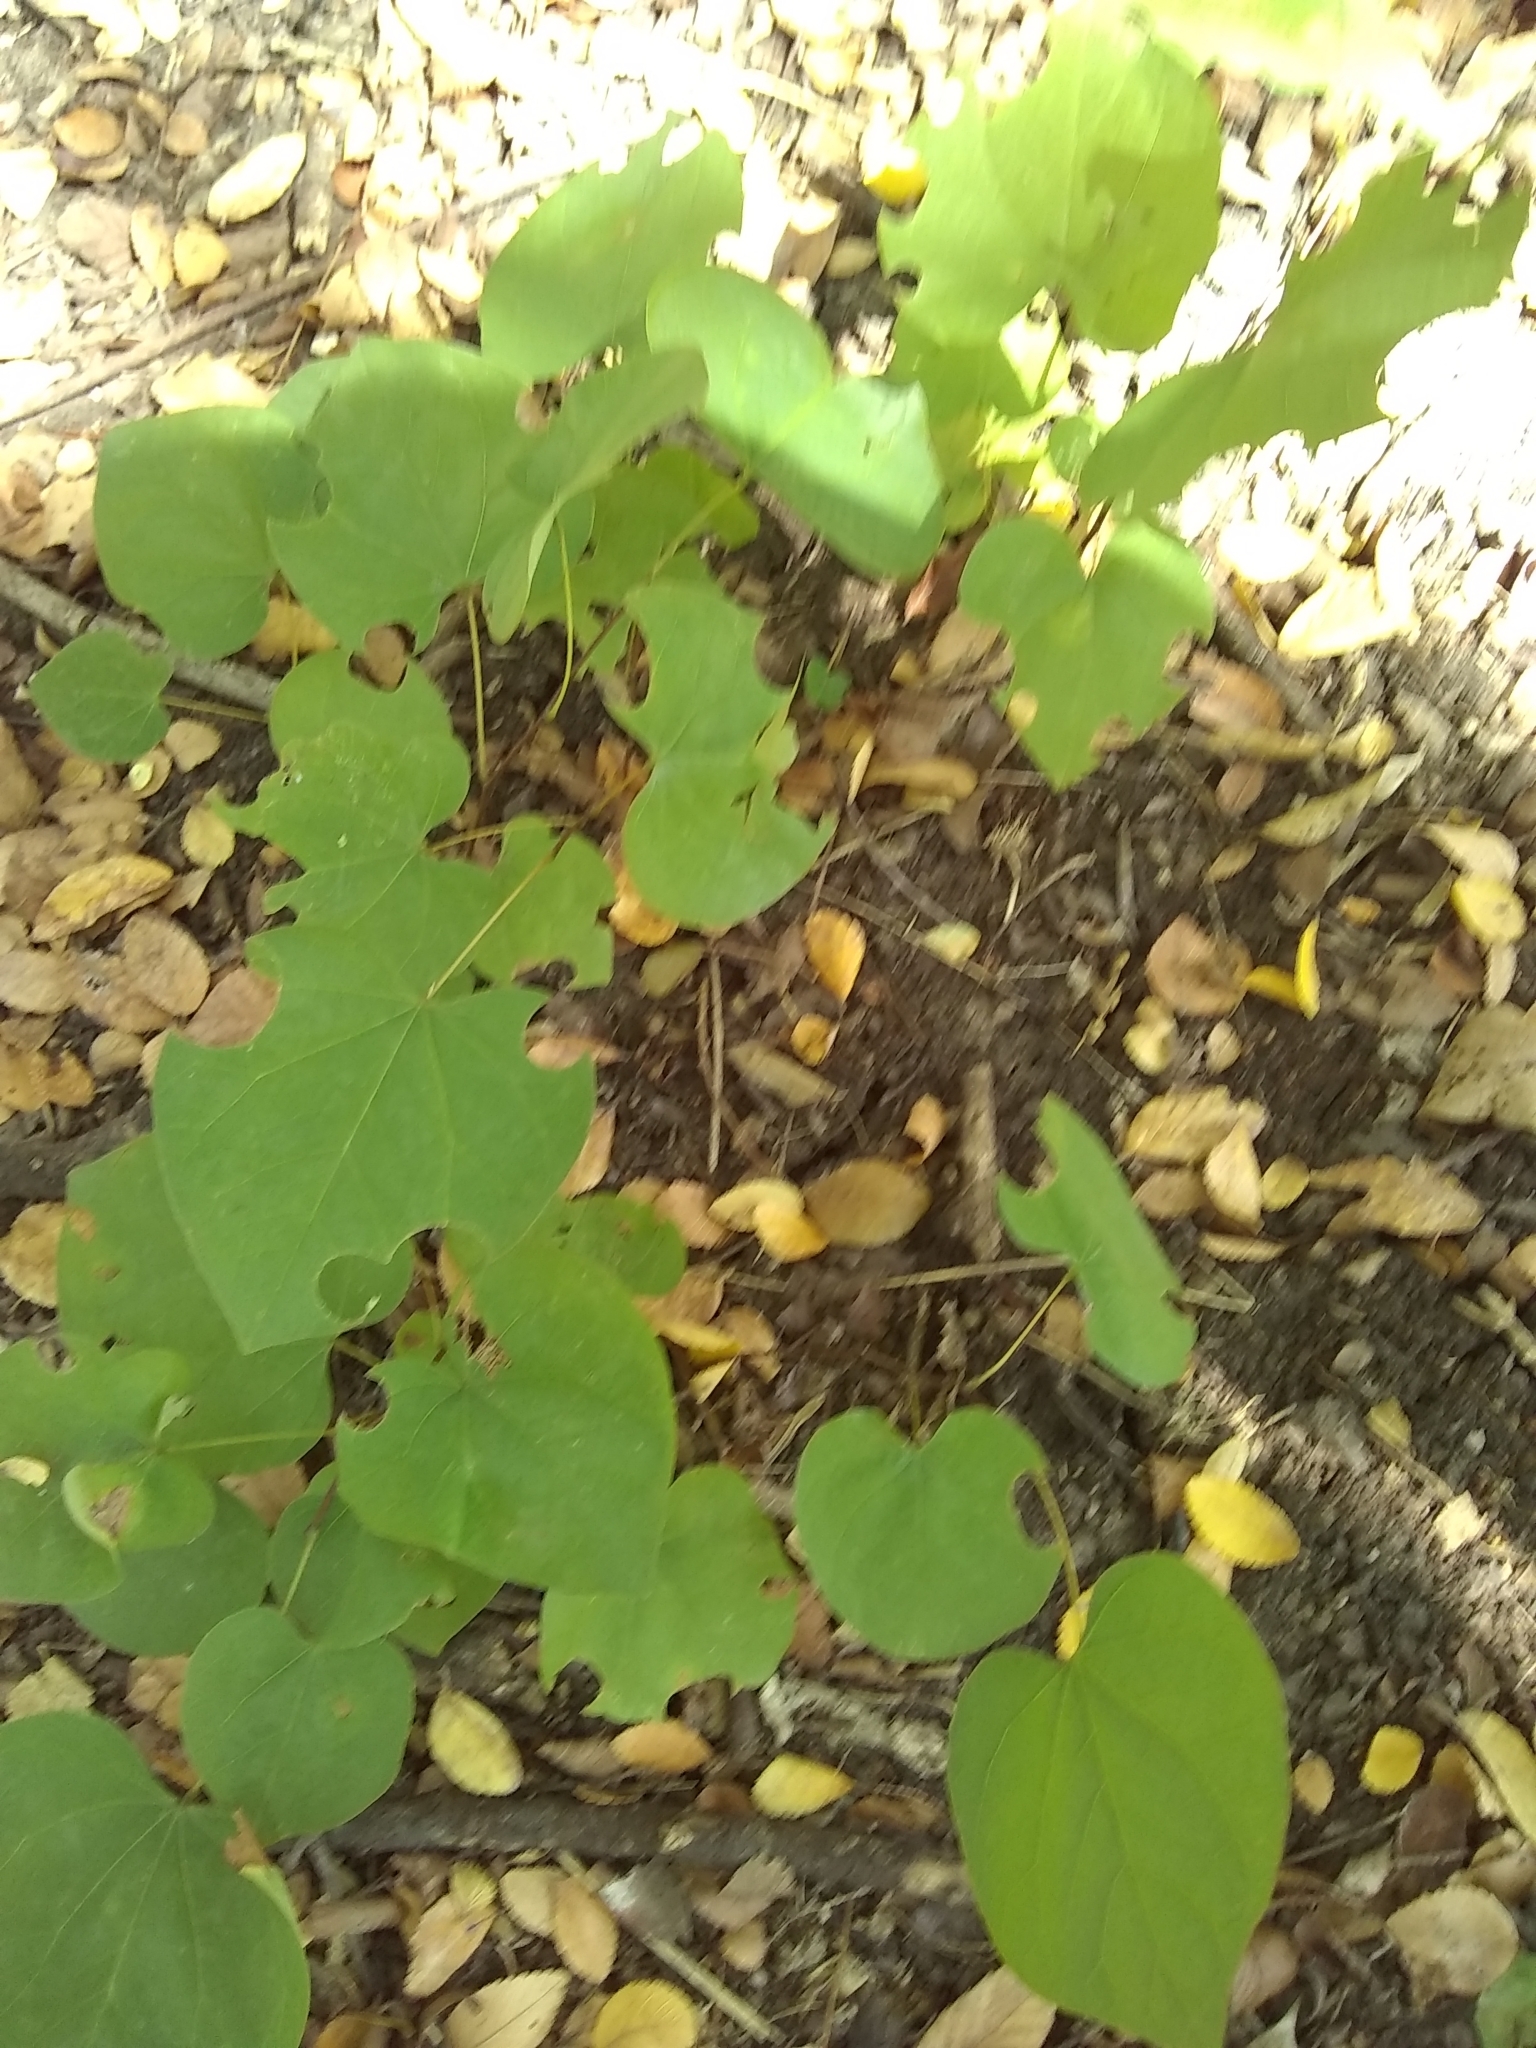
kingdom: Plantae
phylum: Tracheophyta
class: Magnoliopsida
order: Ranunculales
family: Menispermaceae
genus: Cocculus
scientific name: Cocculus carolinus
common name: Carolina moonseed
